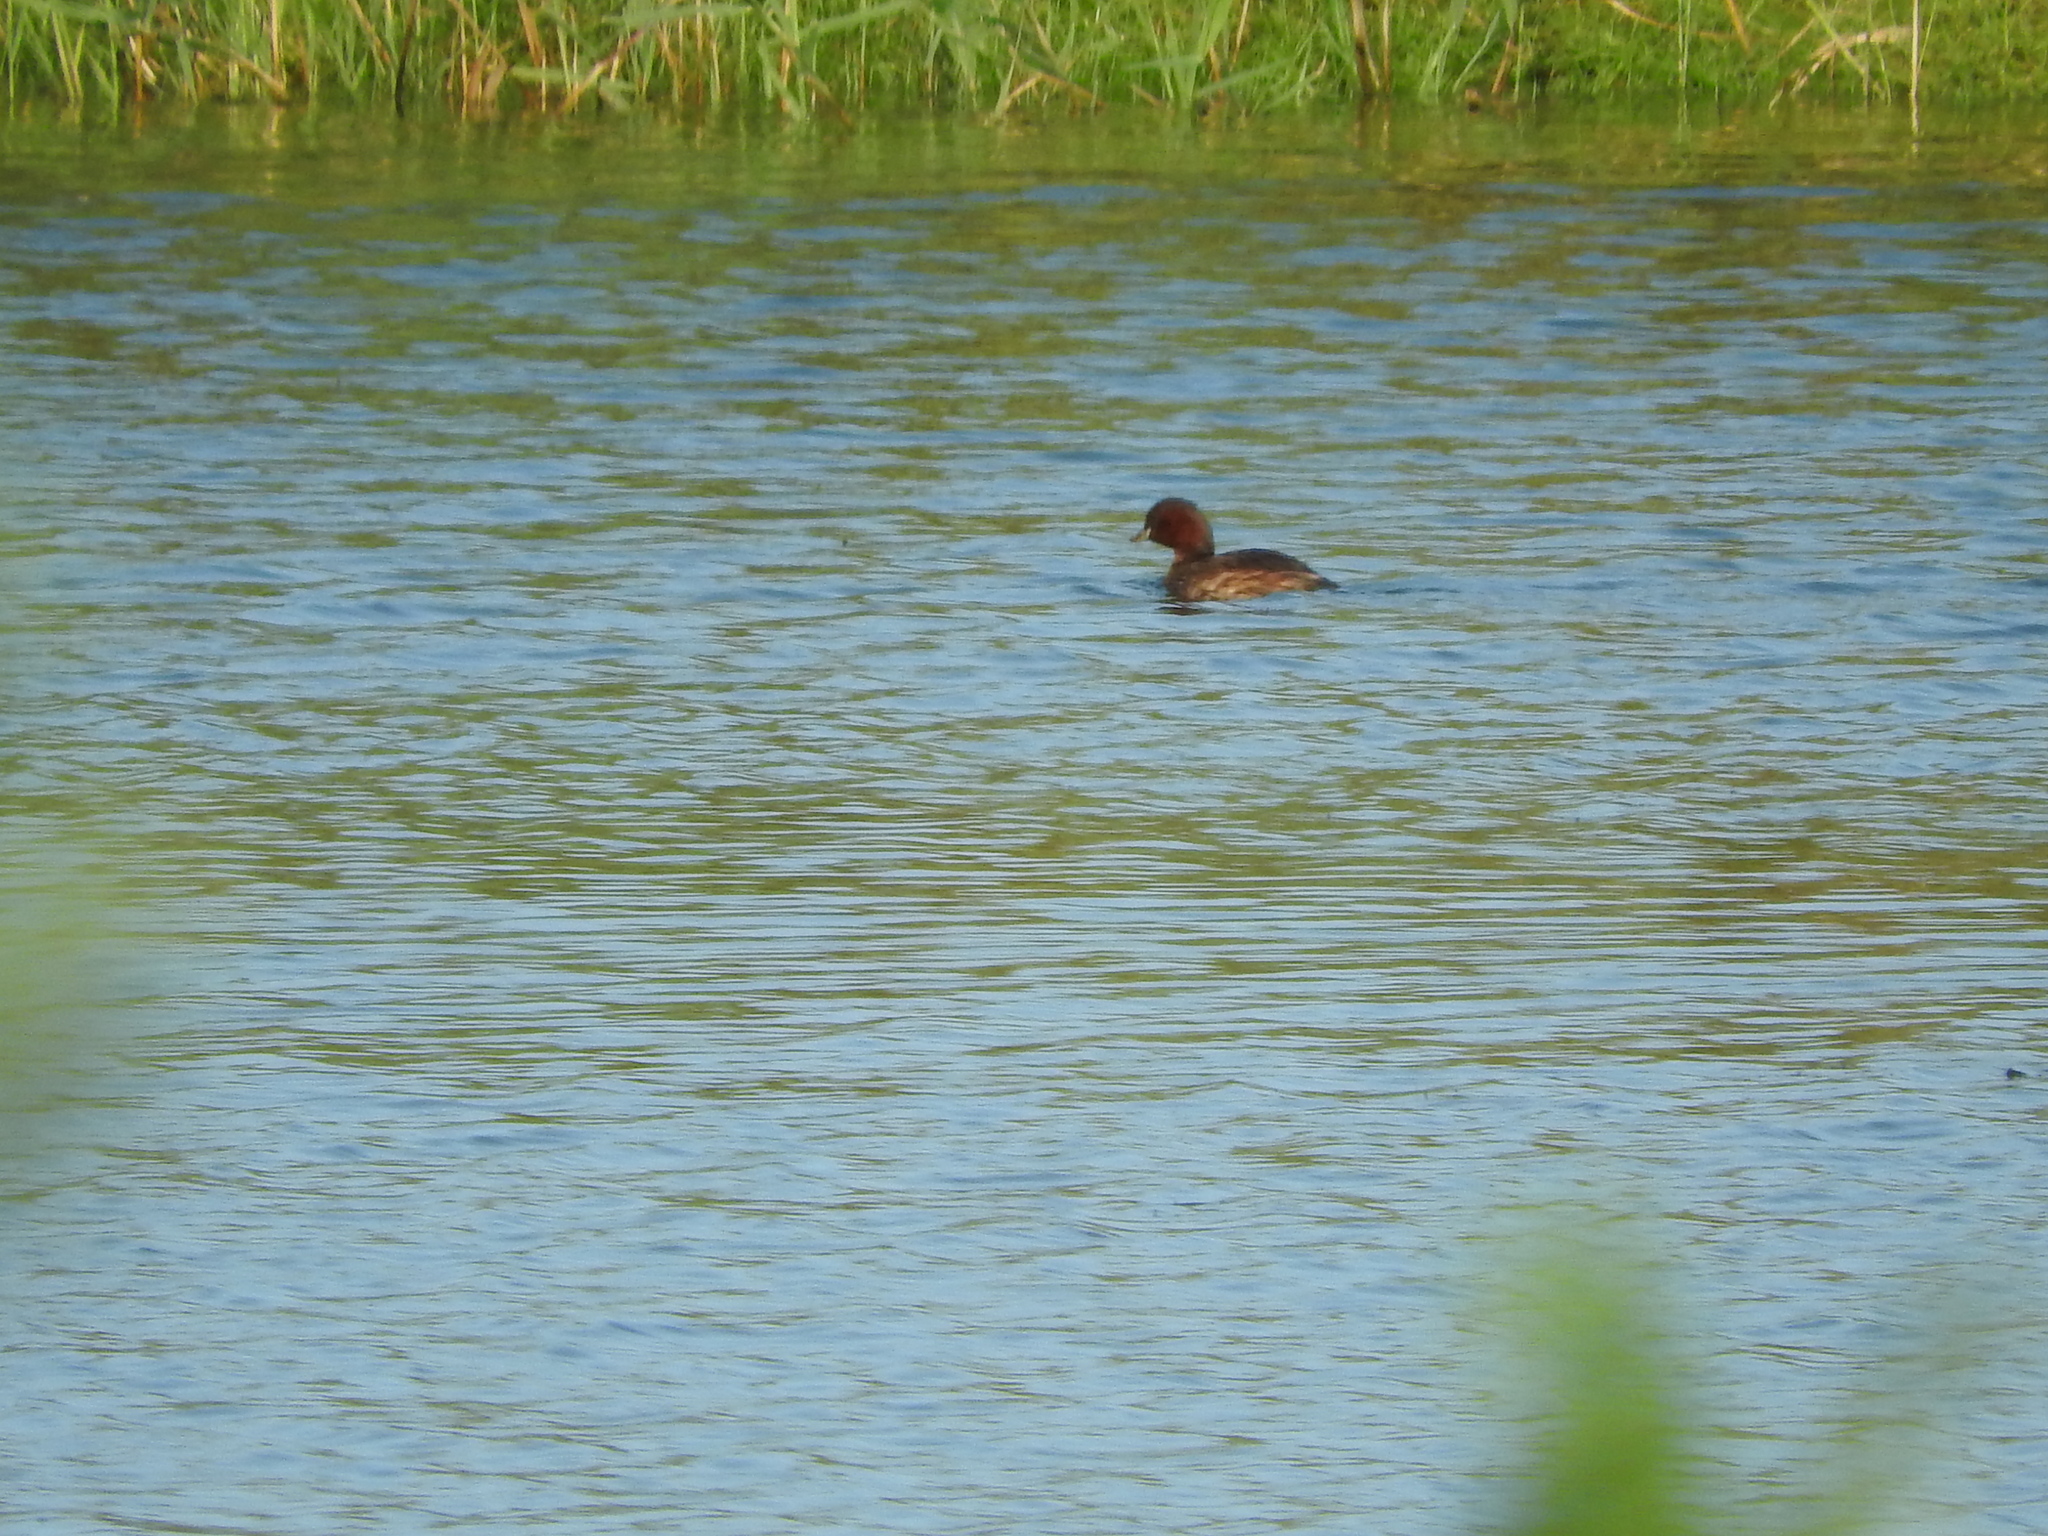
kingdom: Animalia
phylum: Chordata
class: Aves
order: Podicipediformes
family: Podicipedidae
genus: Tachybaptus
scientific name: Tachybaptus ruficollis
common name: Little grebe
